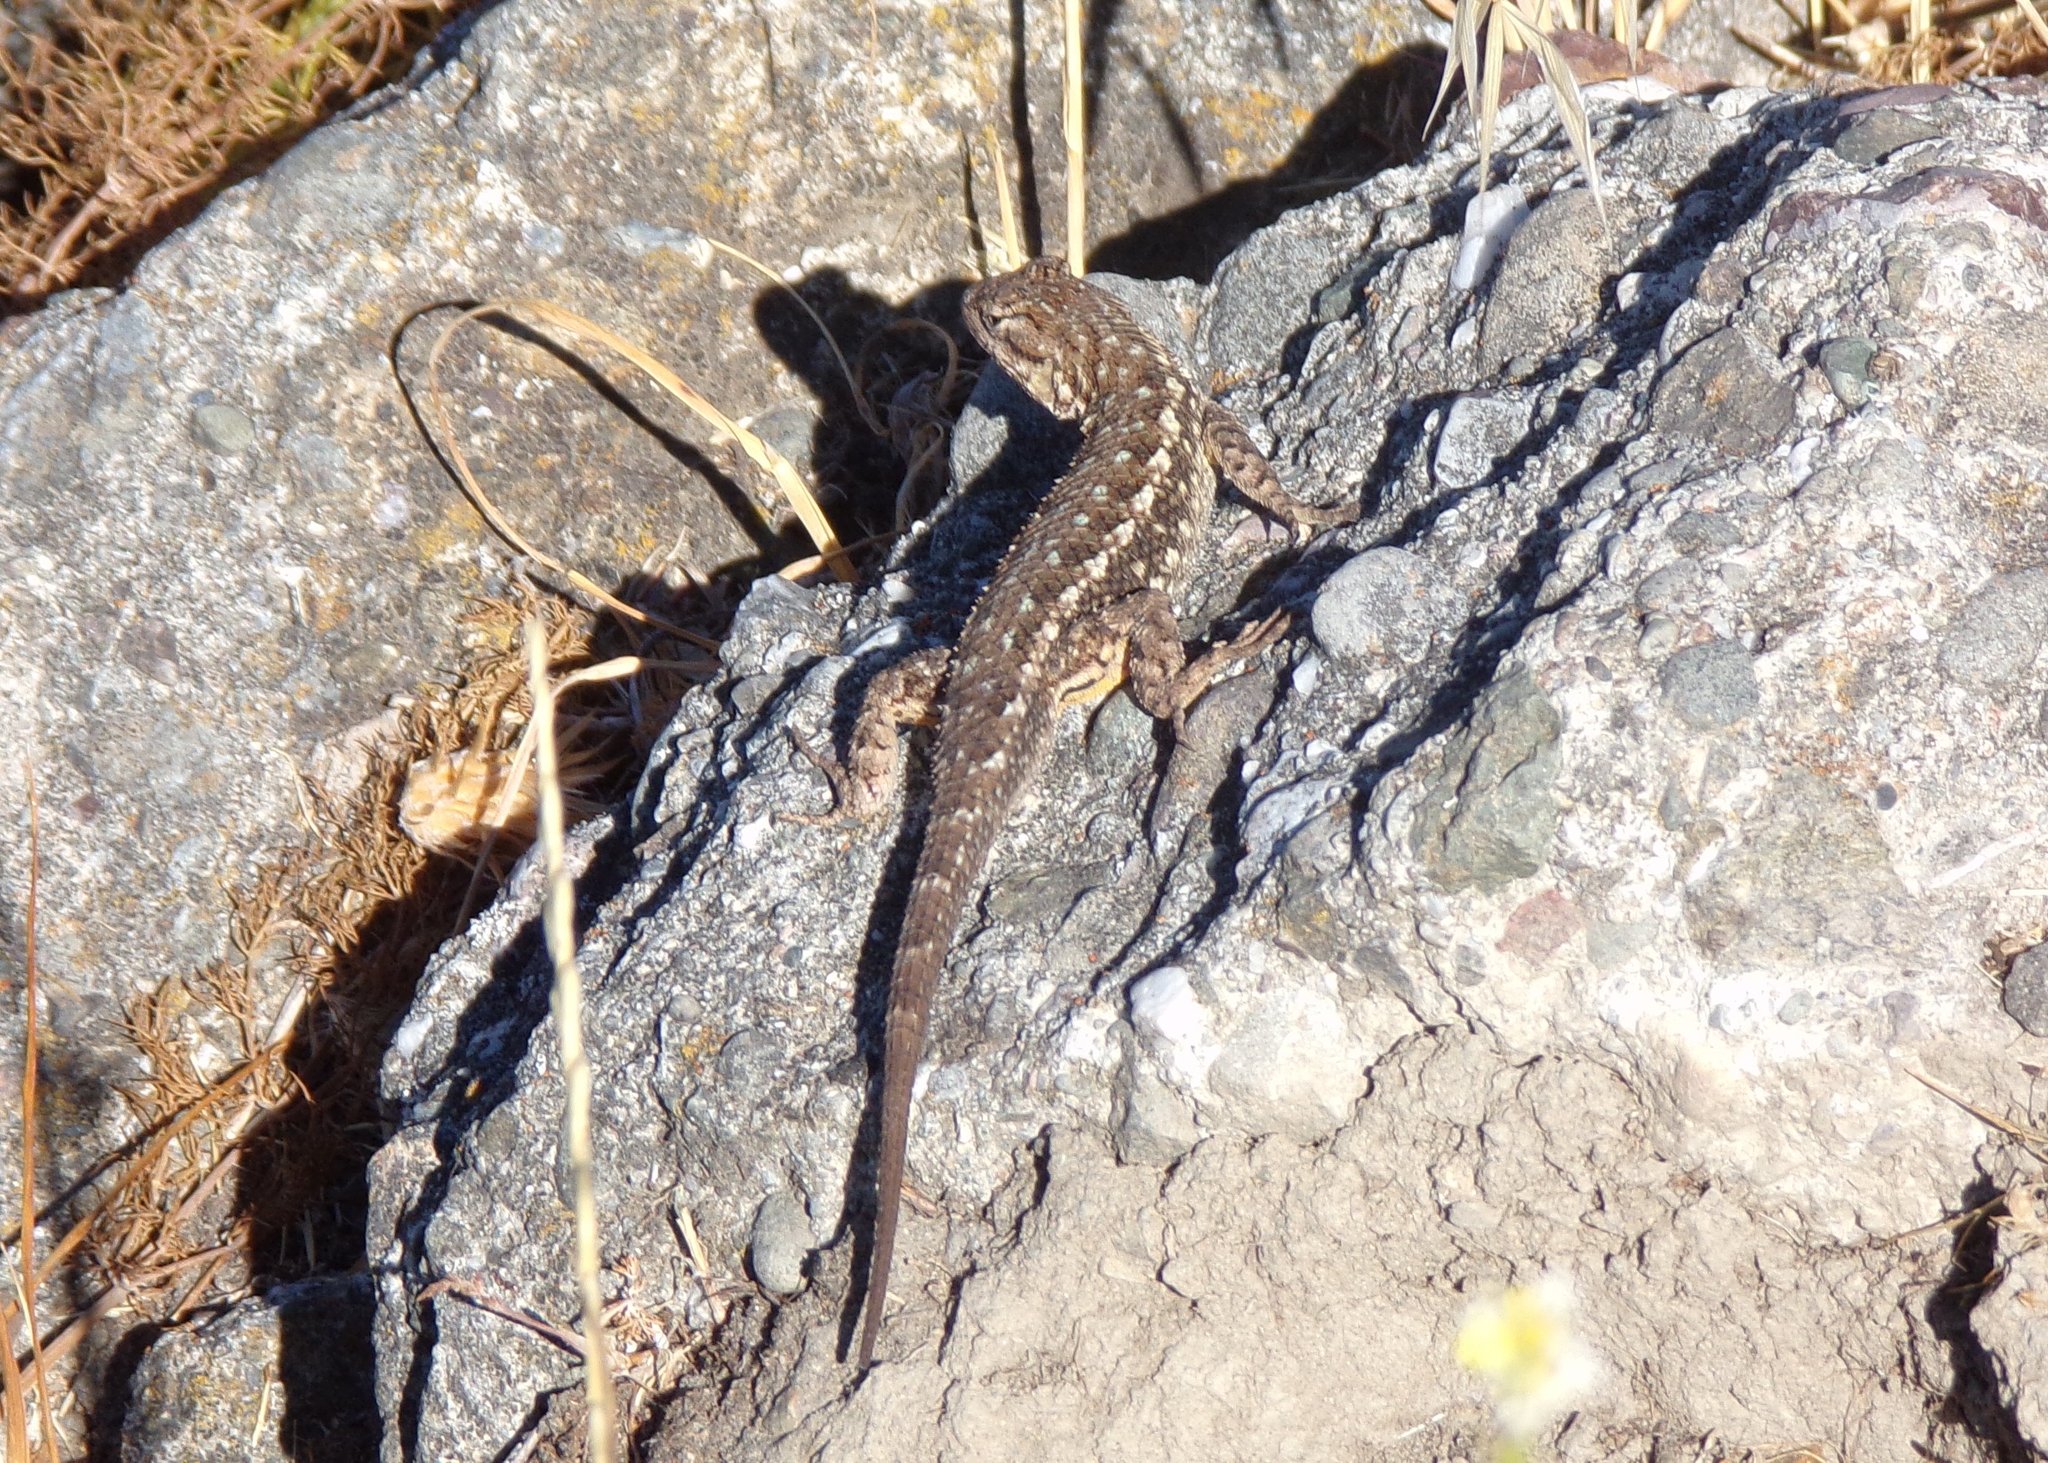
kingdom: Animalia
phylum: Chordata
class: Squamata
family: Phrynosomatidae
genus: Sceloporus
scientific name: Sceloporus occidentalis
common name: Western fence lizard
